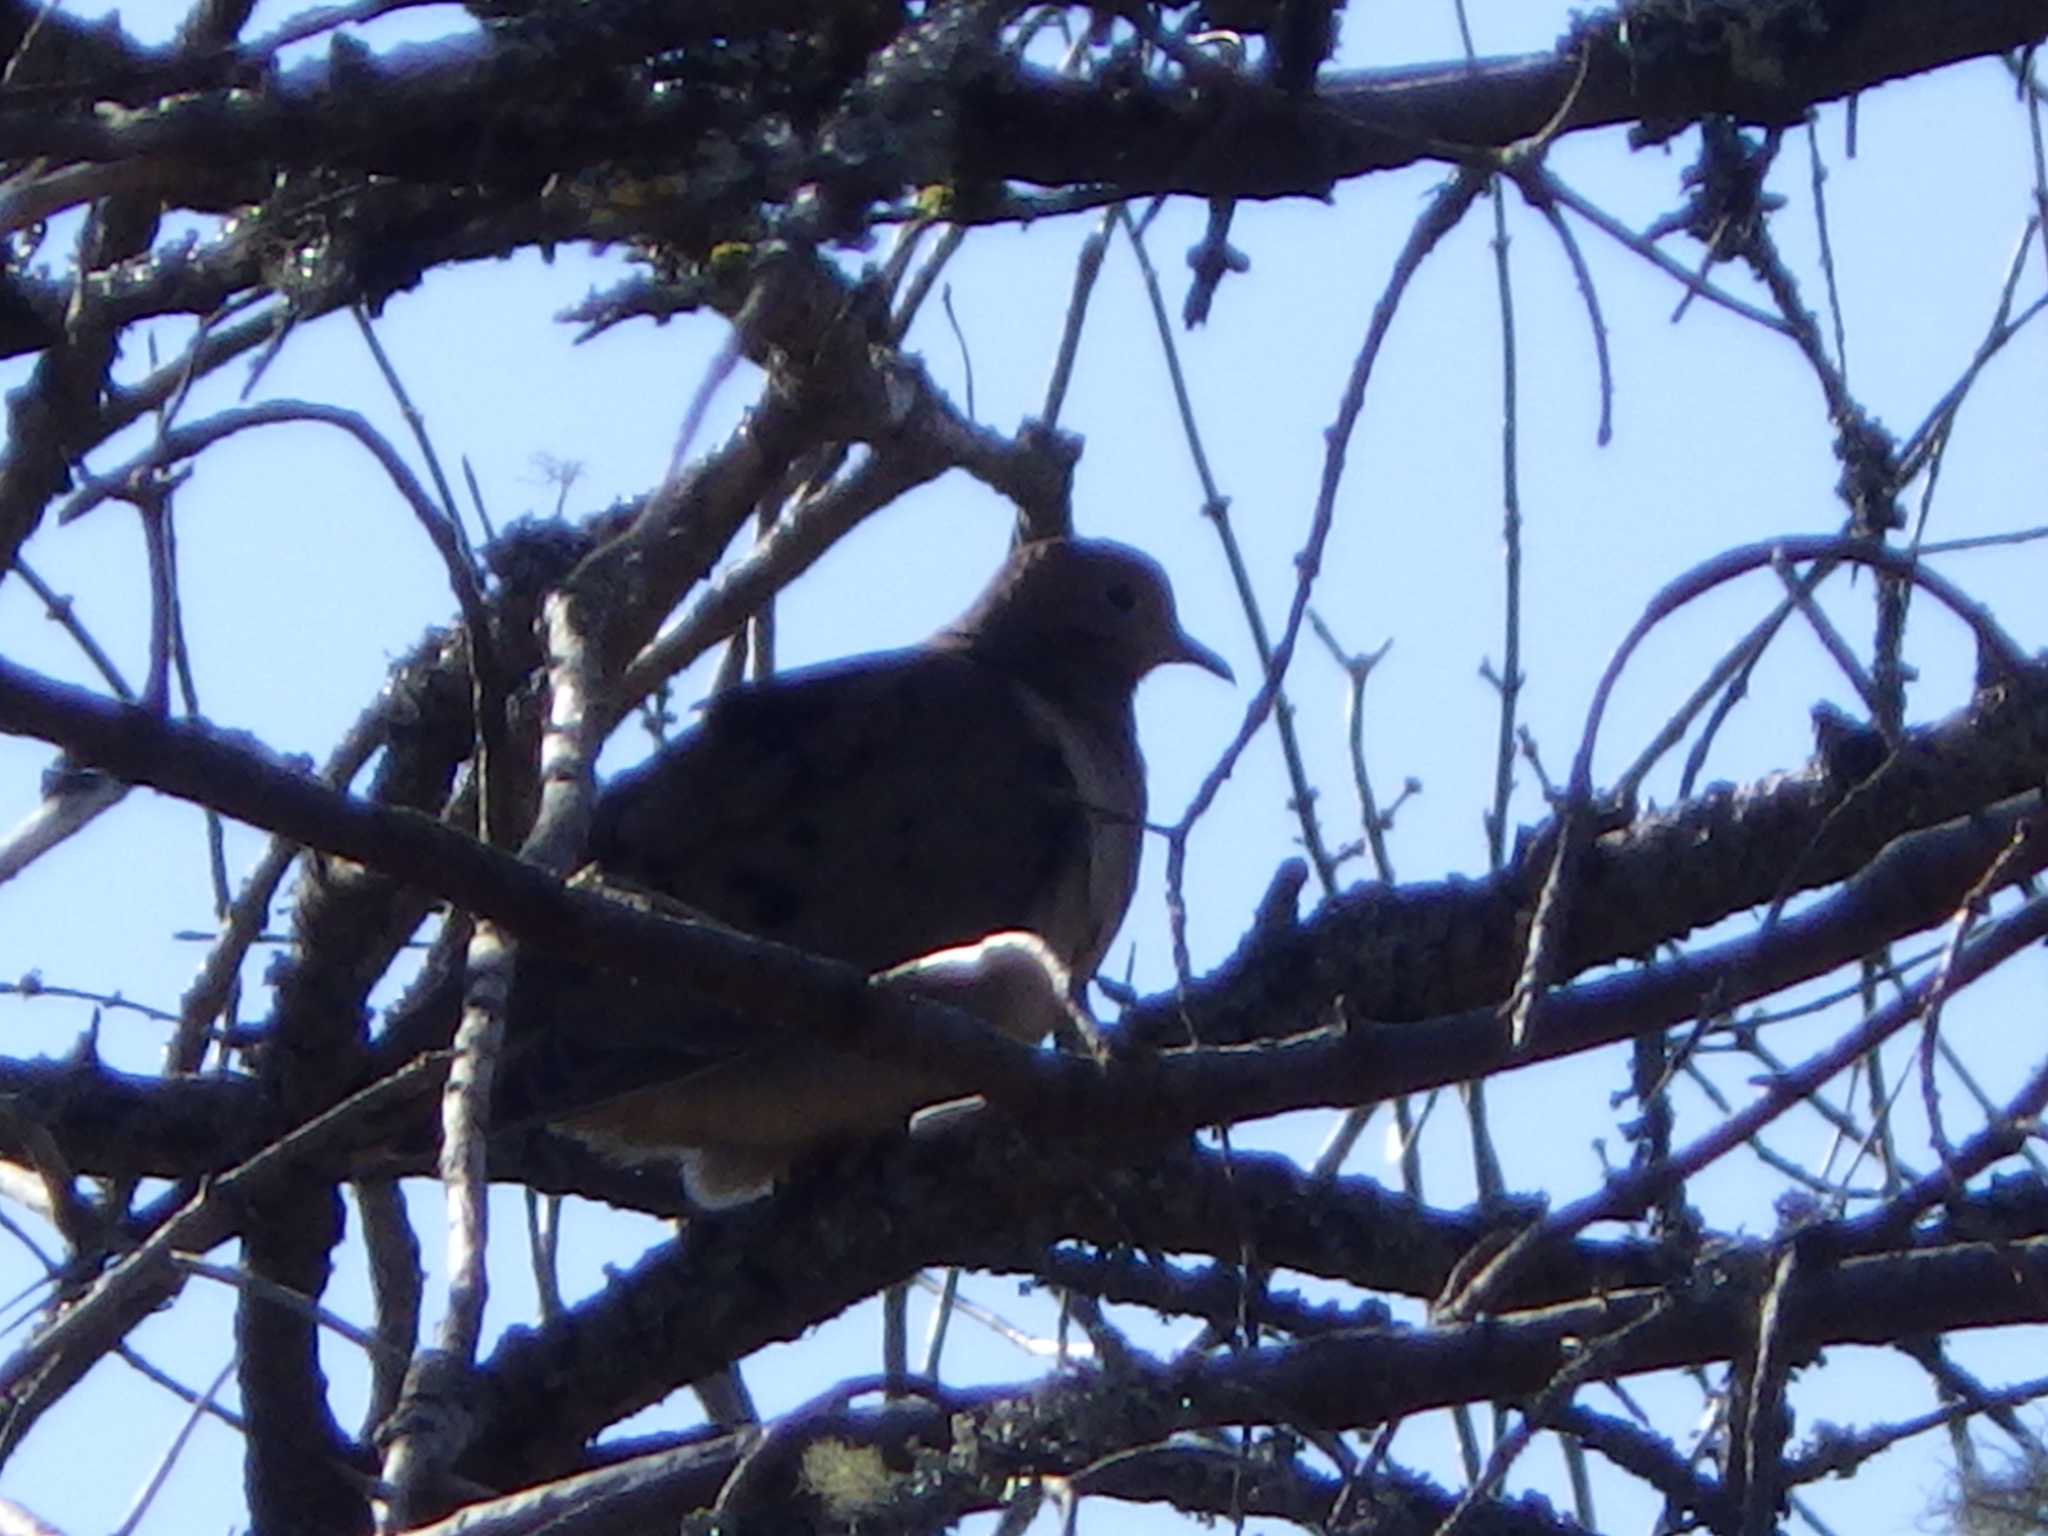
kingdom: Animalia
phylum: Chordata
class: Aves
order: Columbiformes
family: Columbidae
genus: Zenaida
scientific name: Zenaida macroura
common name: Mourning dove
